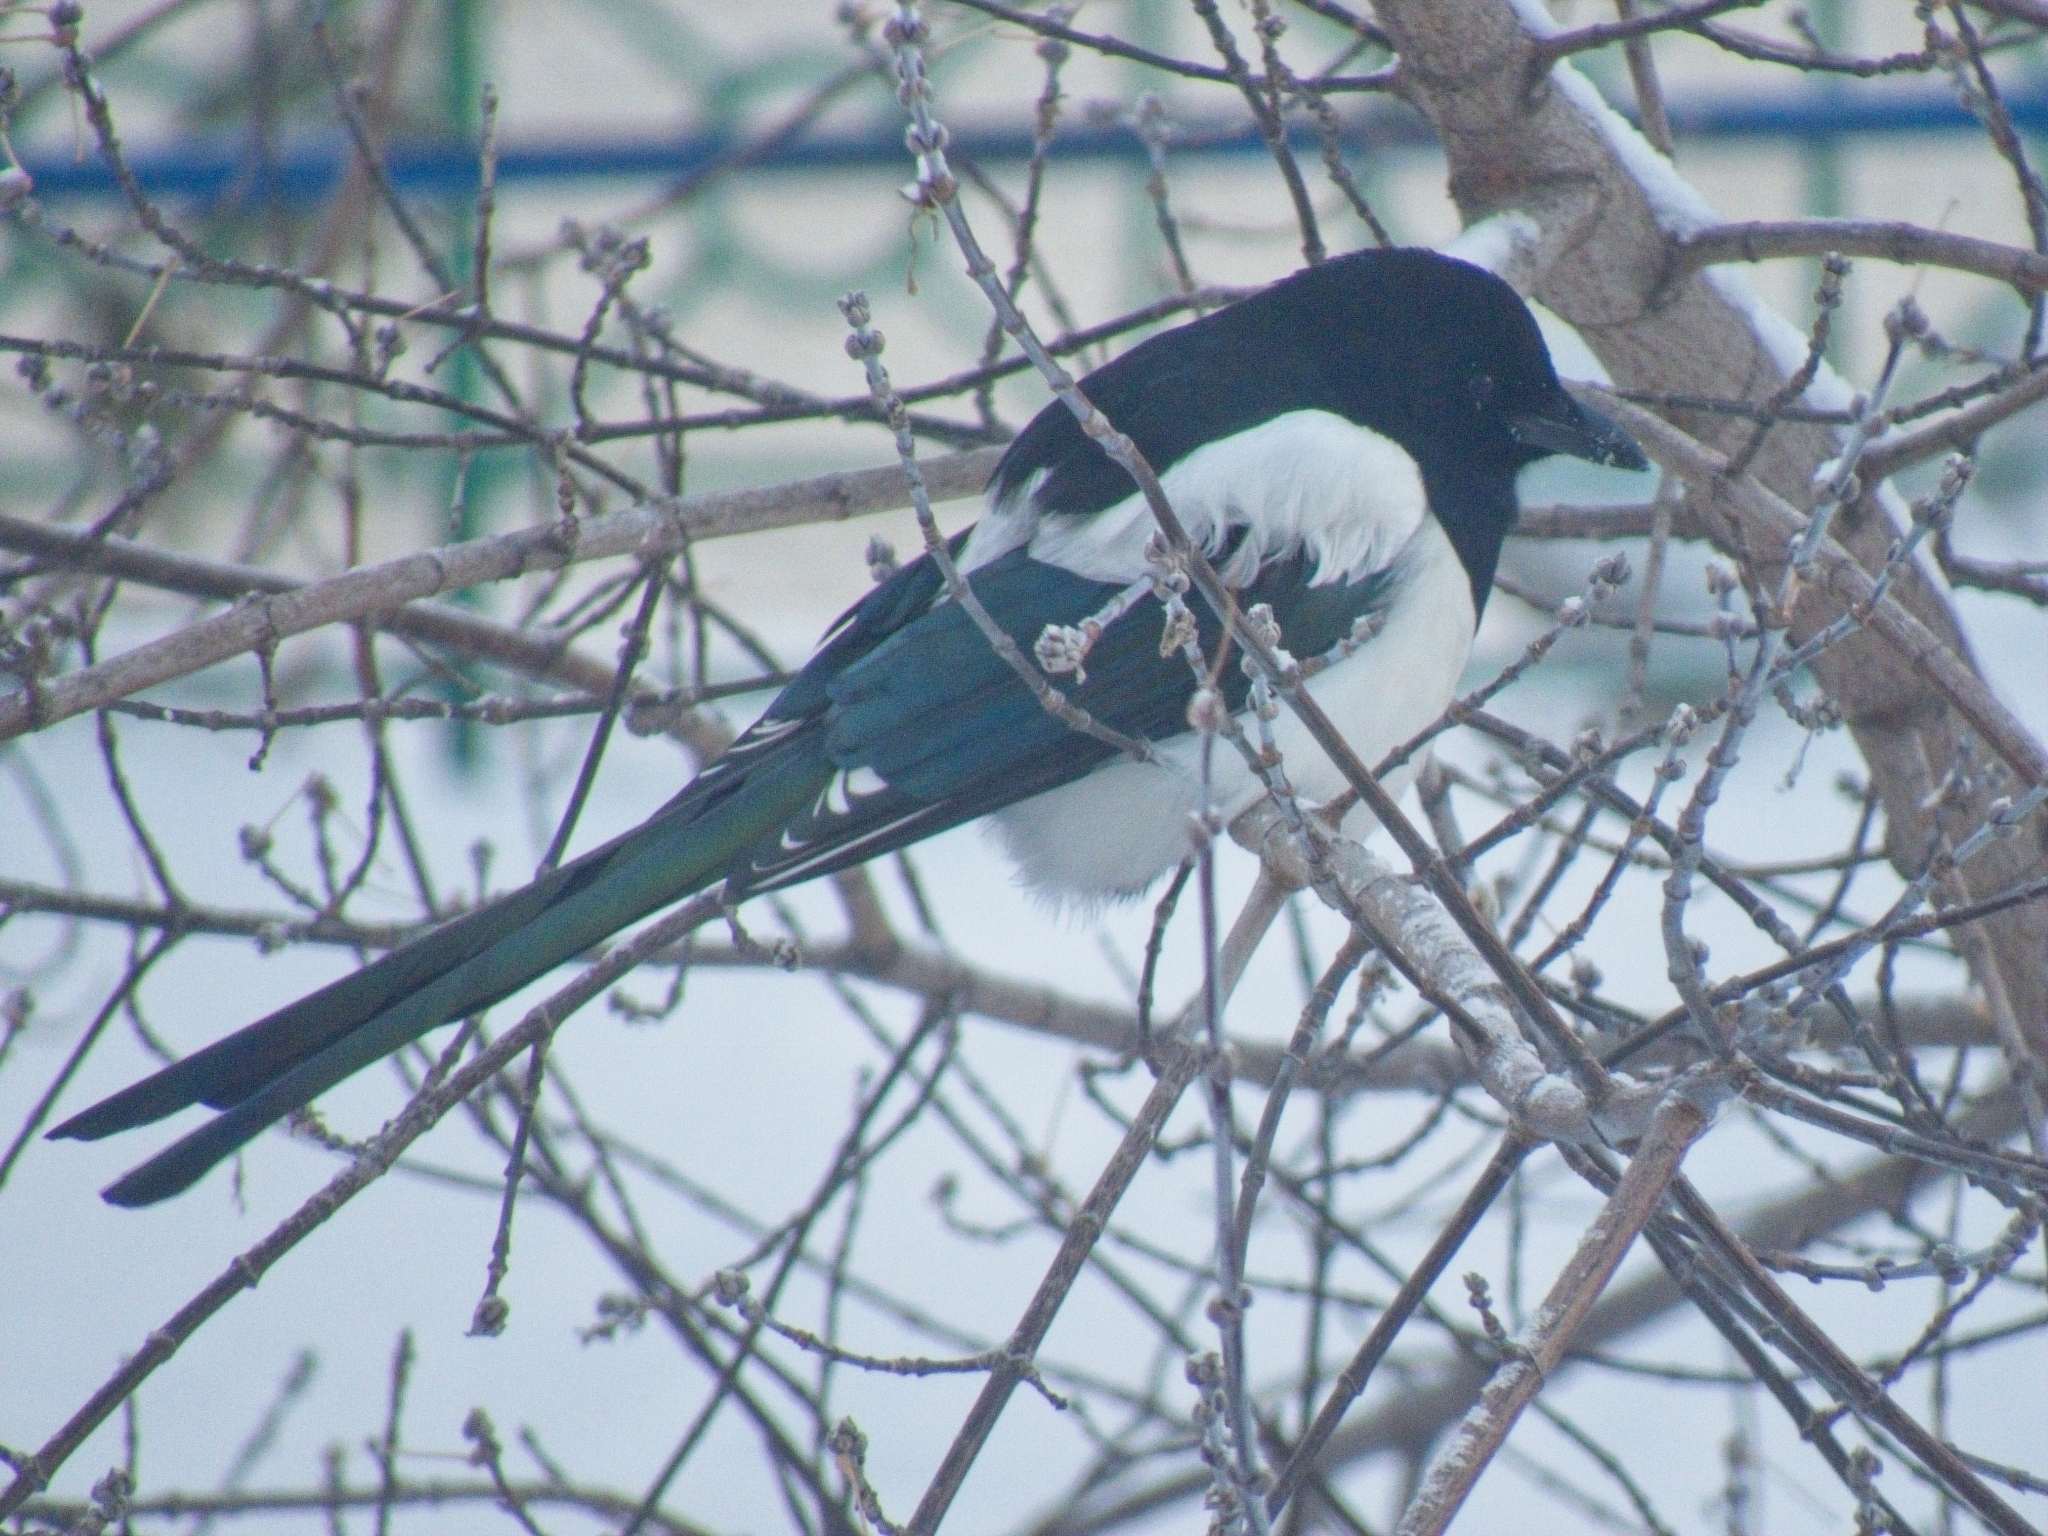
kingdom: Animalia
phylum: Chordata
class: Aves
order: Passeriformes
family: Corvidae
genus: Pica
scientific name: Pica pica
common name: Eurasian magpie
